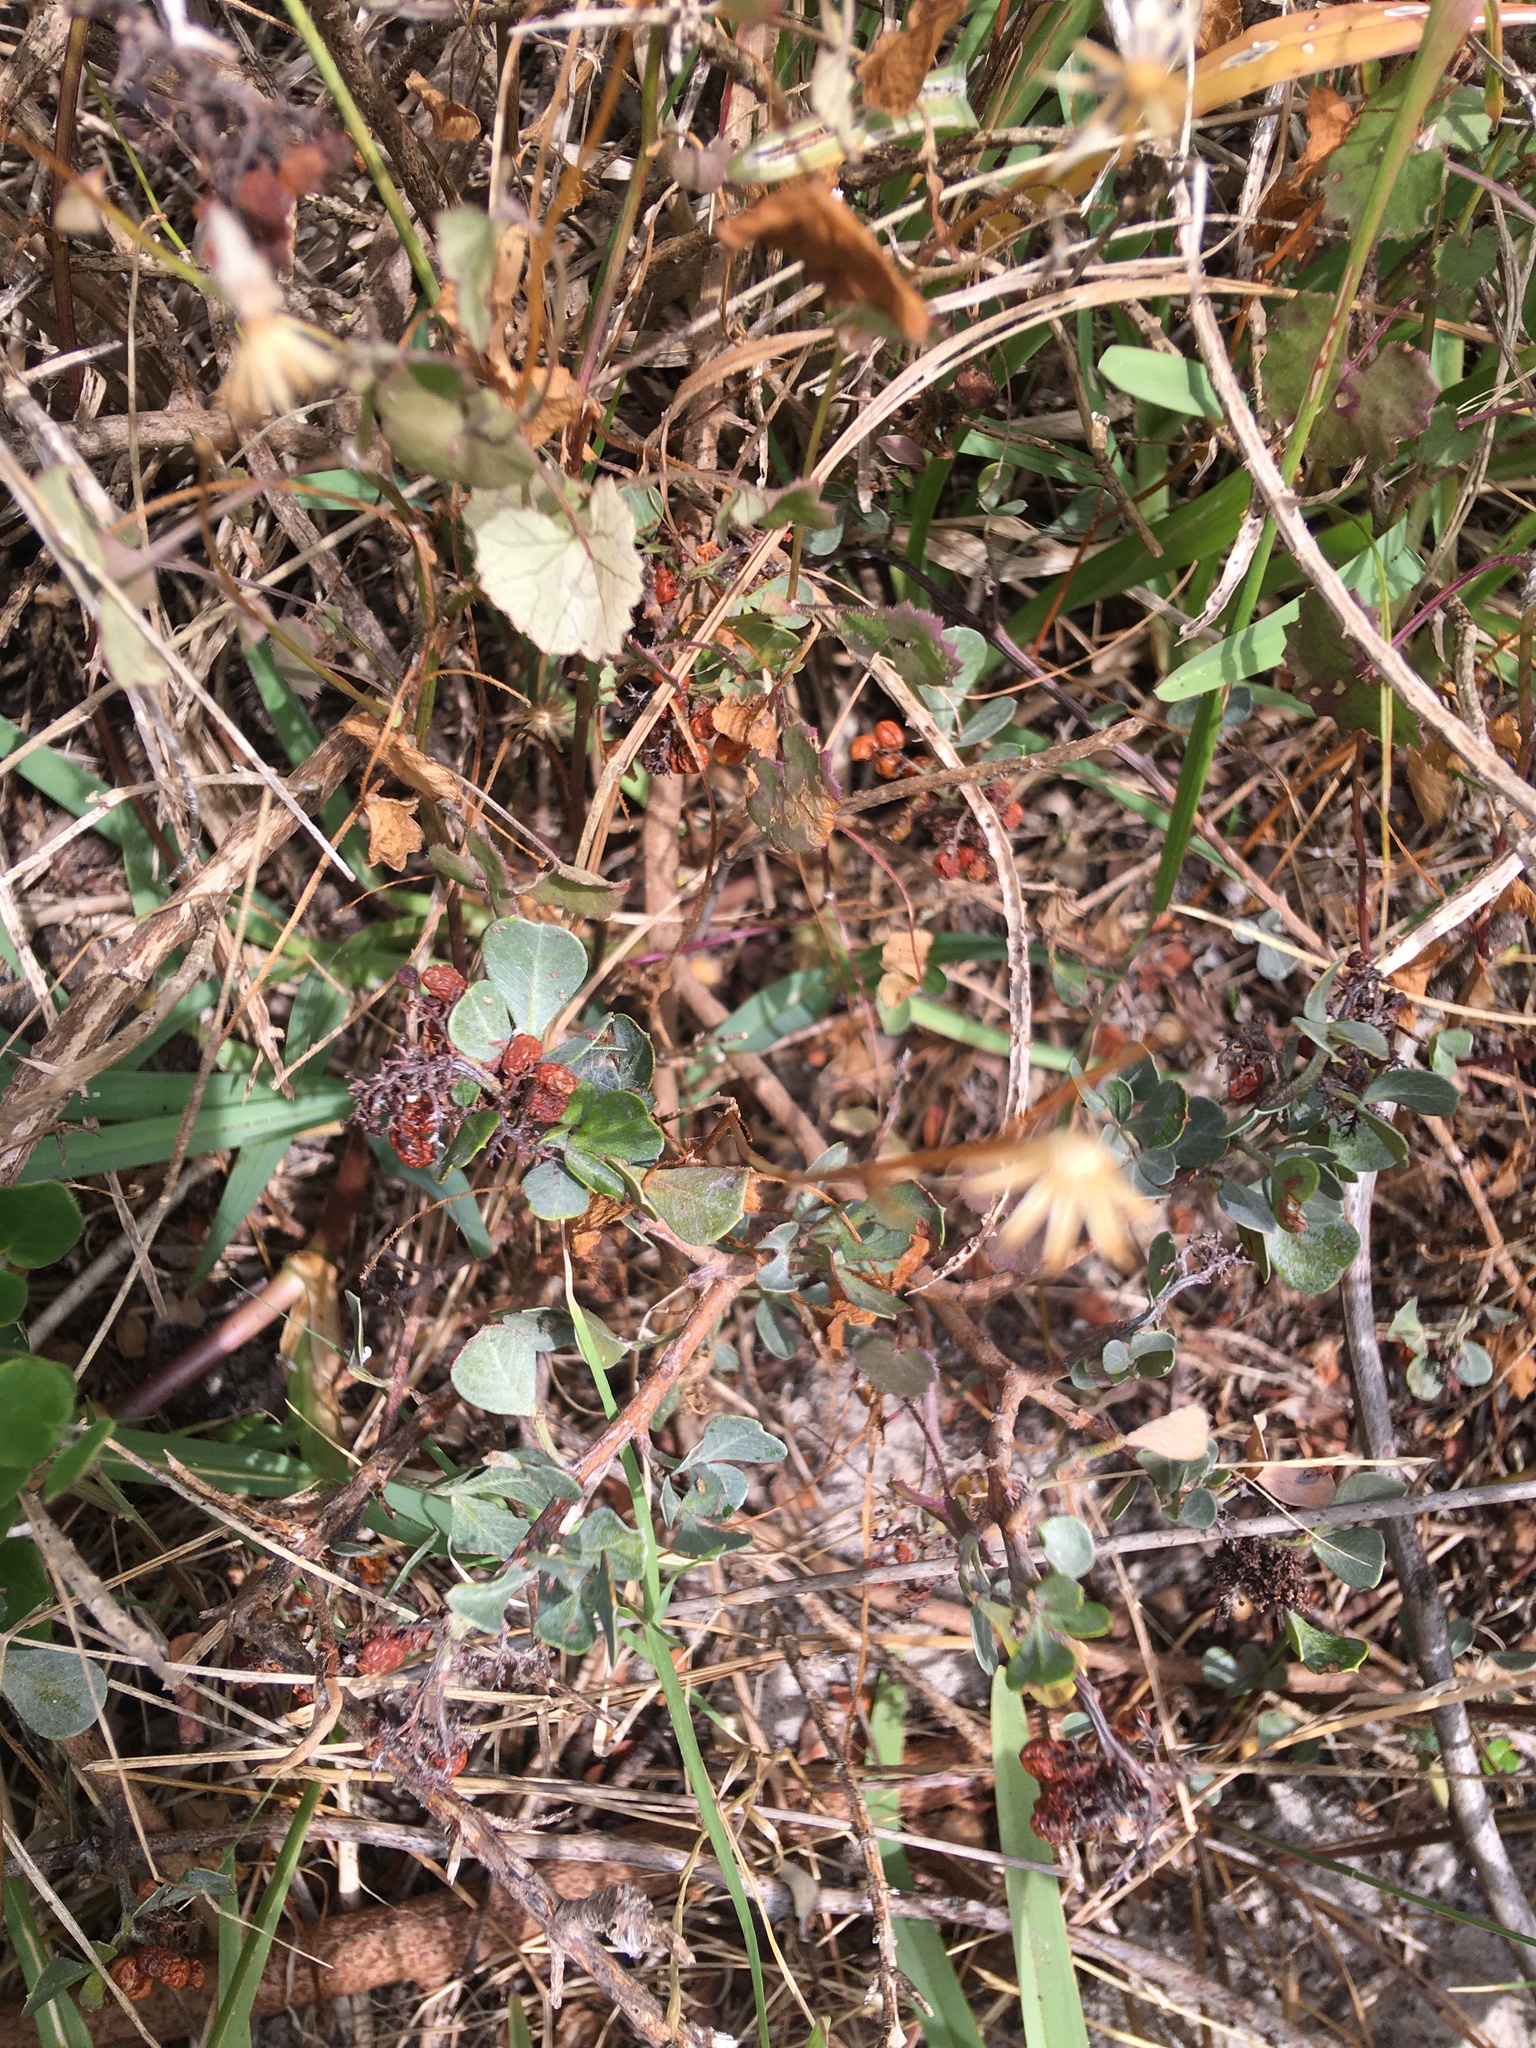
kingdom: Plantae
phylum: Tracheophyta
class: Magnoliopsida
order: Sapindales
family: Anacardiaceae
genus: Searsia
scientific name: Searsia glauca
